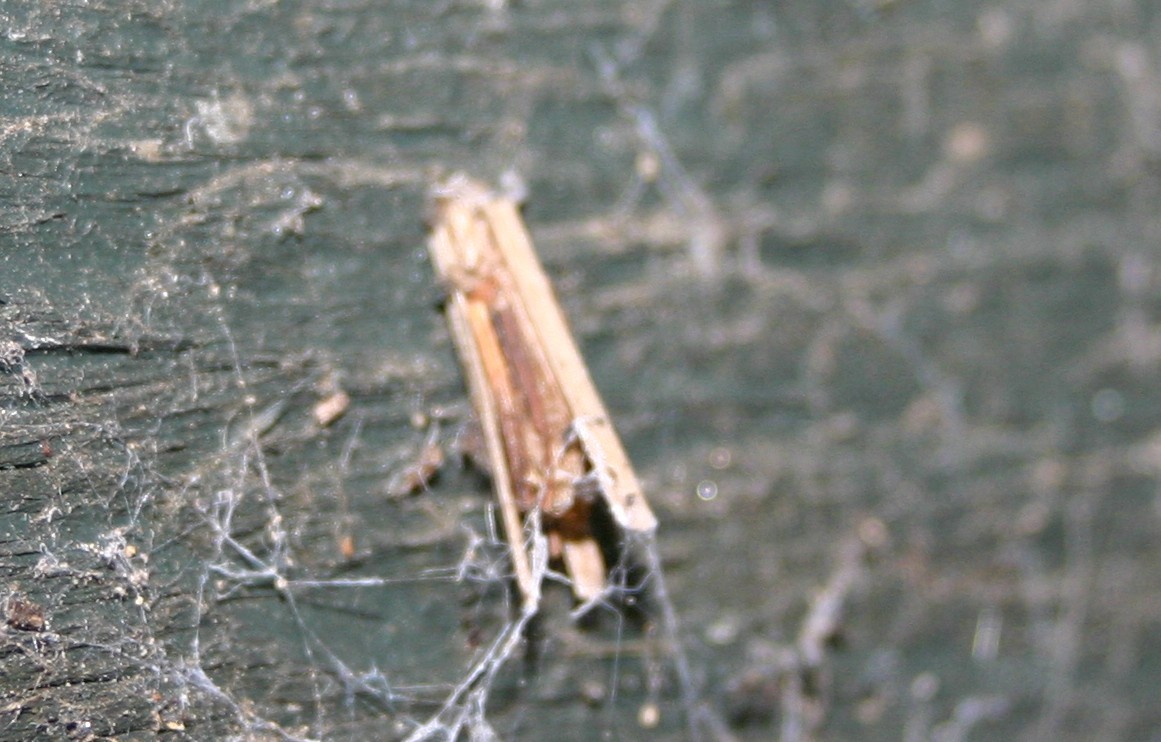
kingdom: Animalia
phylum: Arthropoda
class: Insecta
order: Lepidoptera
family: Psychidae
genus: Psyche
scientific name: Psyche casta
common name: Common sweep
